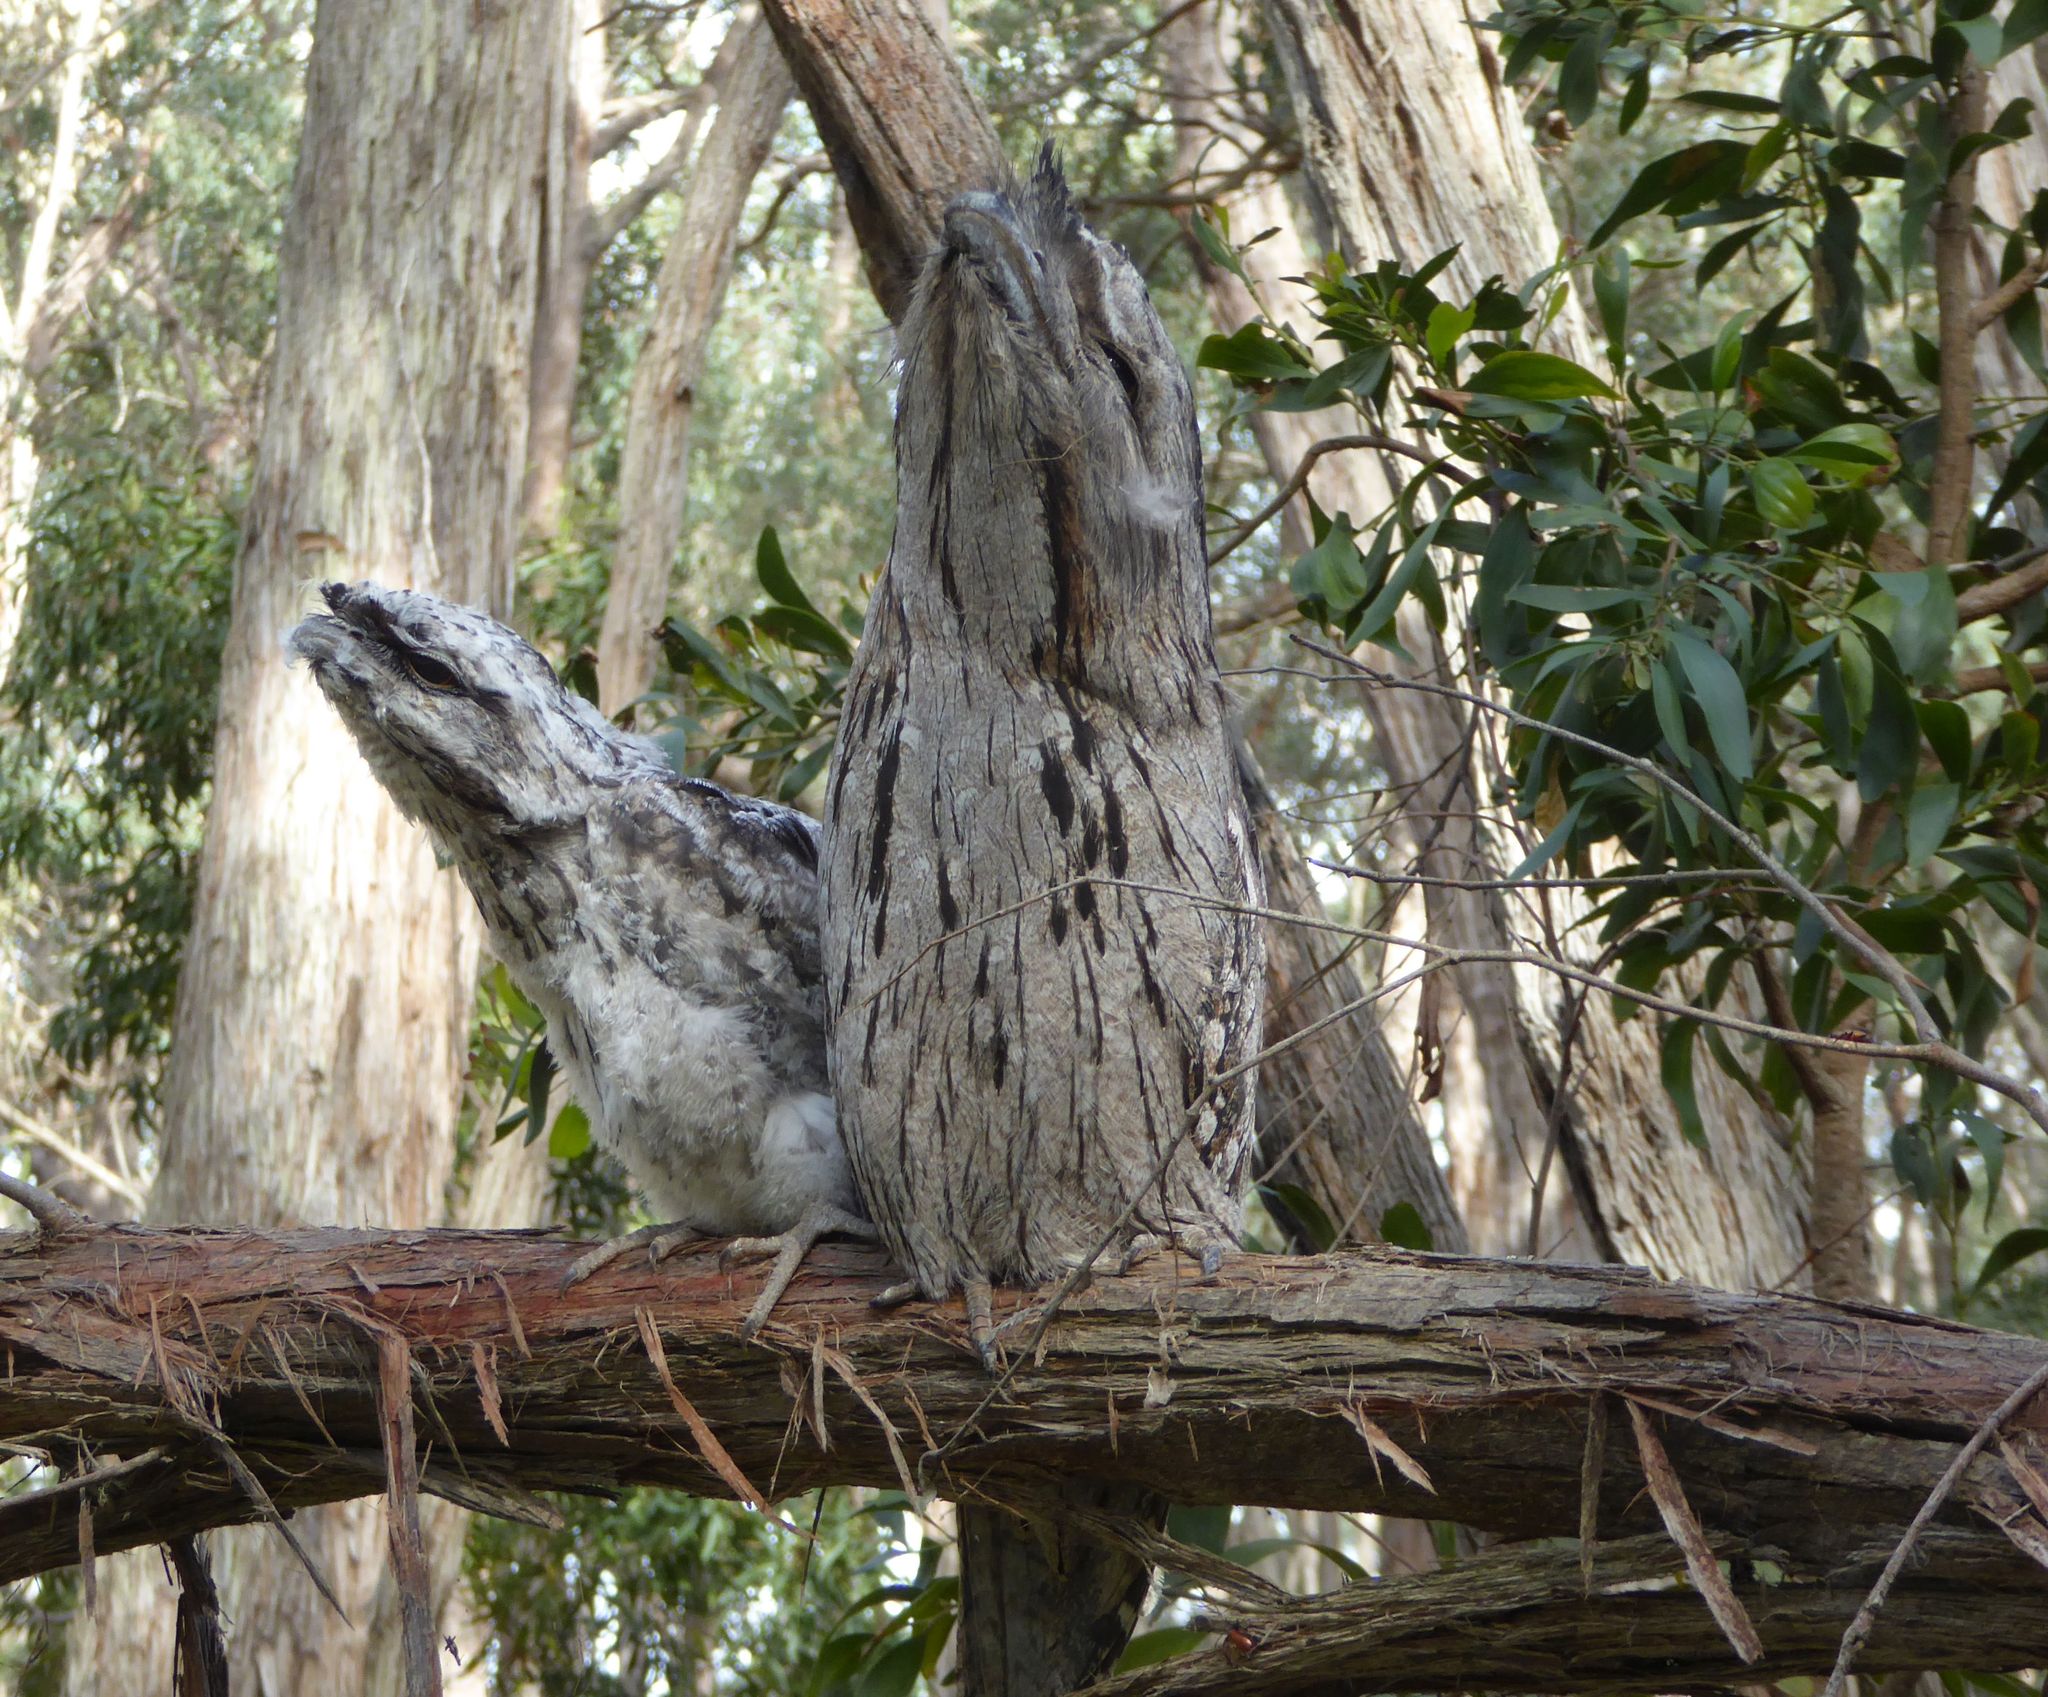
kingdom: Animalia
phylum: Chordata
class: Aves
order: Caprimulgiformes
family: Podargidae
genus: Podargus
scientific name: Podargus strigoides
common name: Tawny frogmouth
